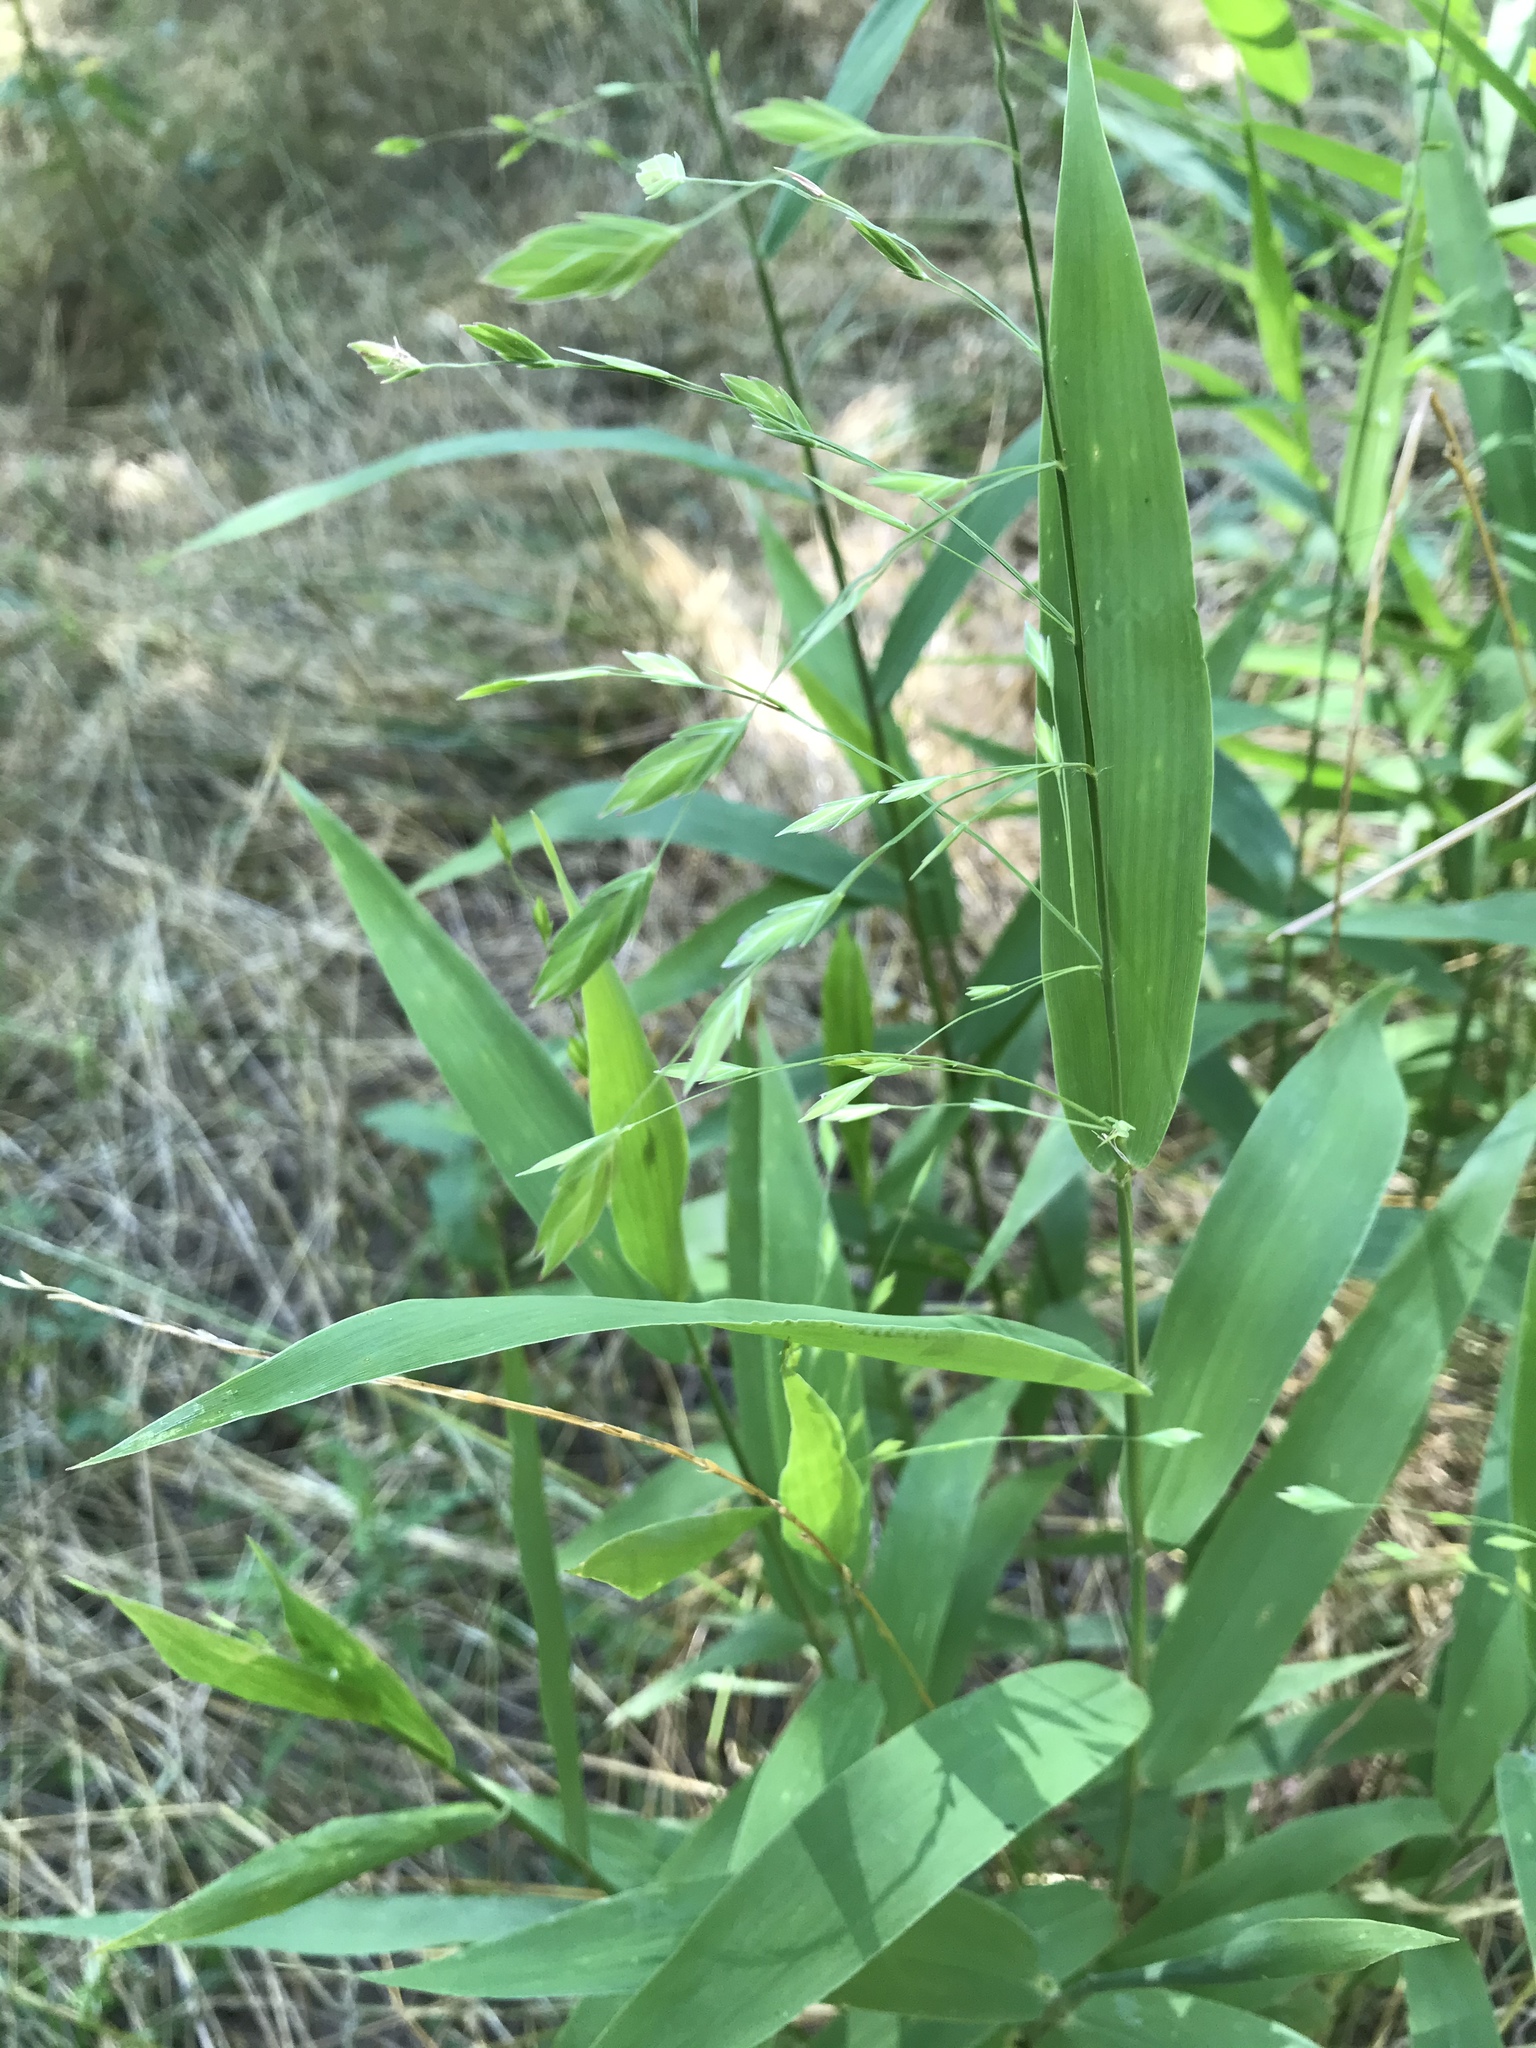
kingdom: Plantae
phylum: Tracheophyta
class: Liliopsida
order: Poales
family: Poaceae
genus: Chasmanthium
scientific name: Chasmanthium latifolium
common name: Broad-leaved chasmanthium
